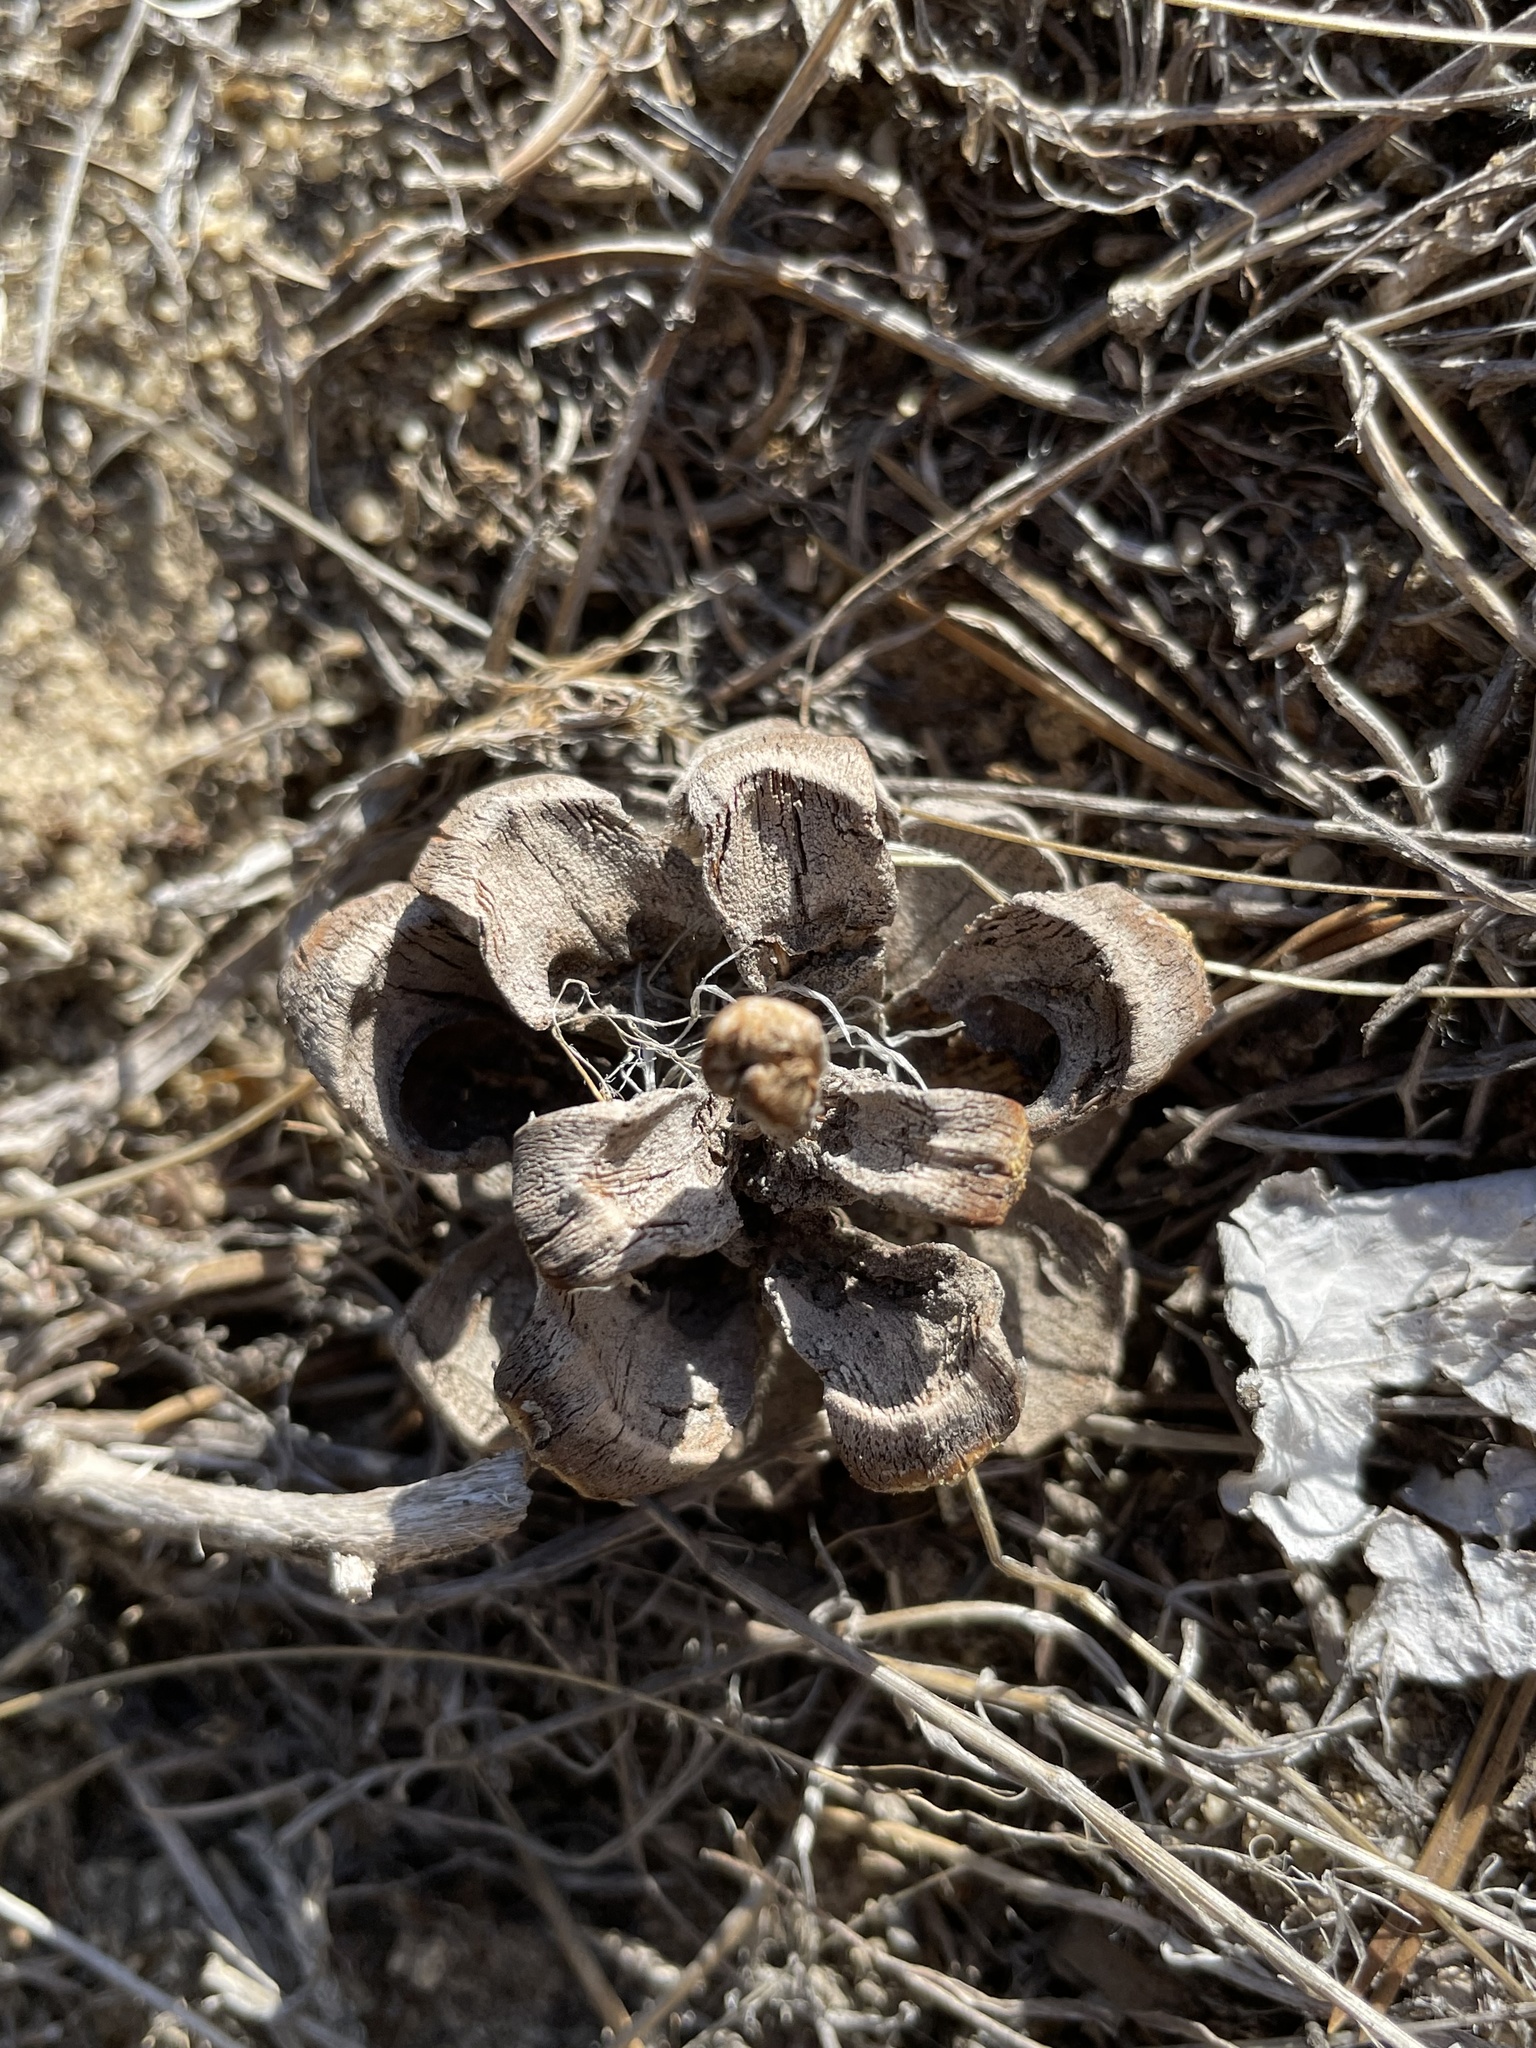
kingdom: Plantae
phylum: Tracheophyta
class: Pinopsida
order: Pinales
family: Pinaceae
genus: Pinus
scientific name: Pinus edulis
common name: Colorado pinyon
